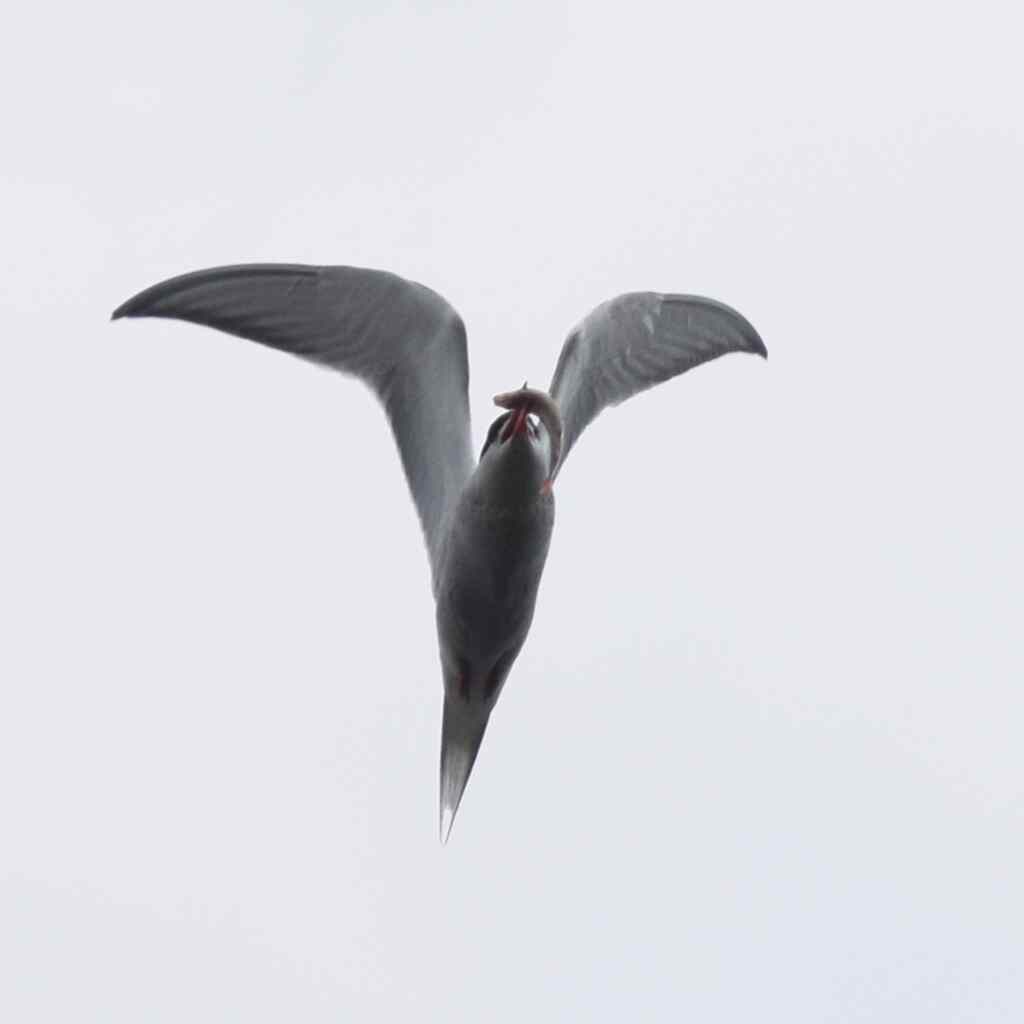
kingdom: Animalia
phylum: Chordata
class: Aves
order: Charadriiformes
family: Laridae
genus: Sterna
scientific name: Sterna hirundo
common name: Common tern
